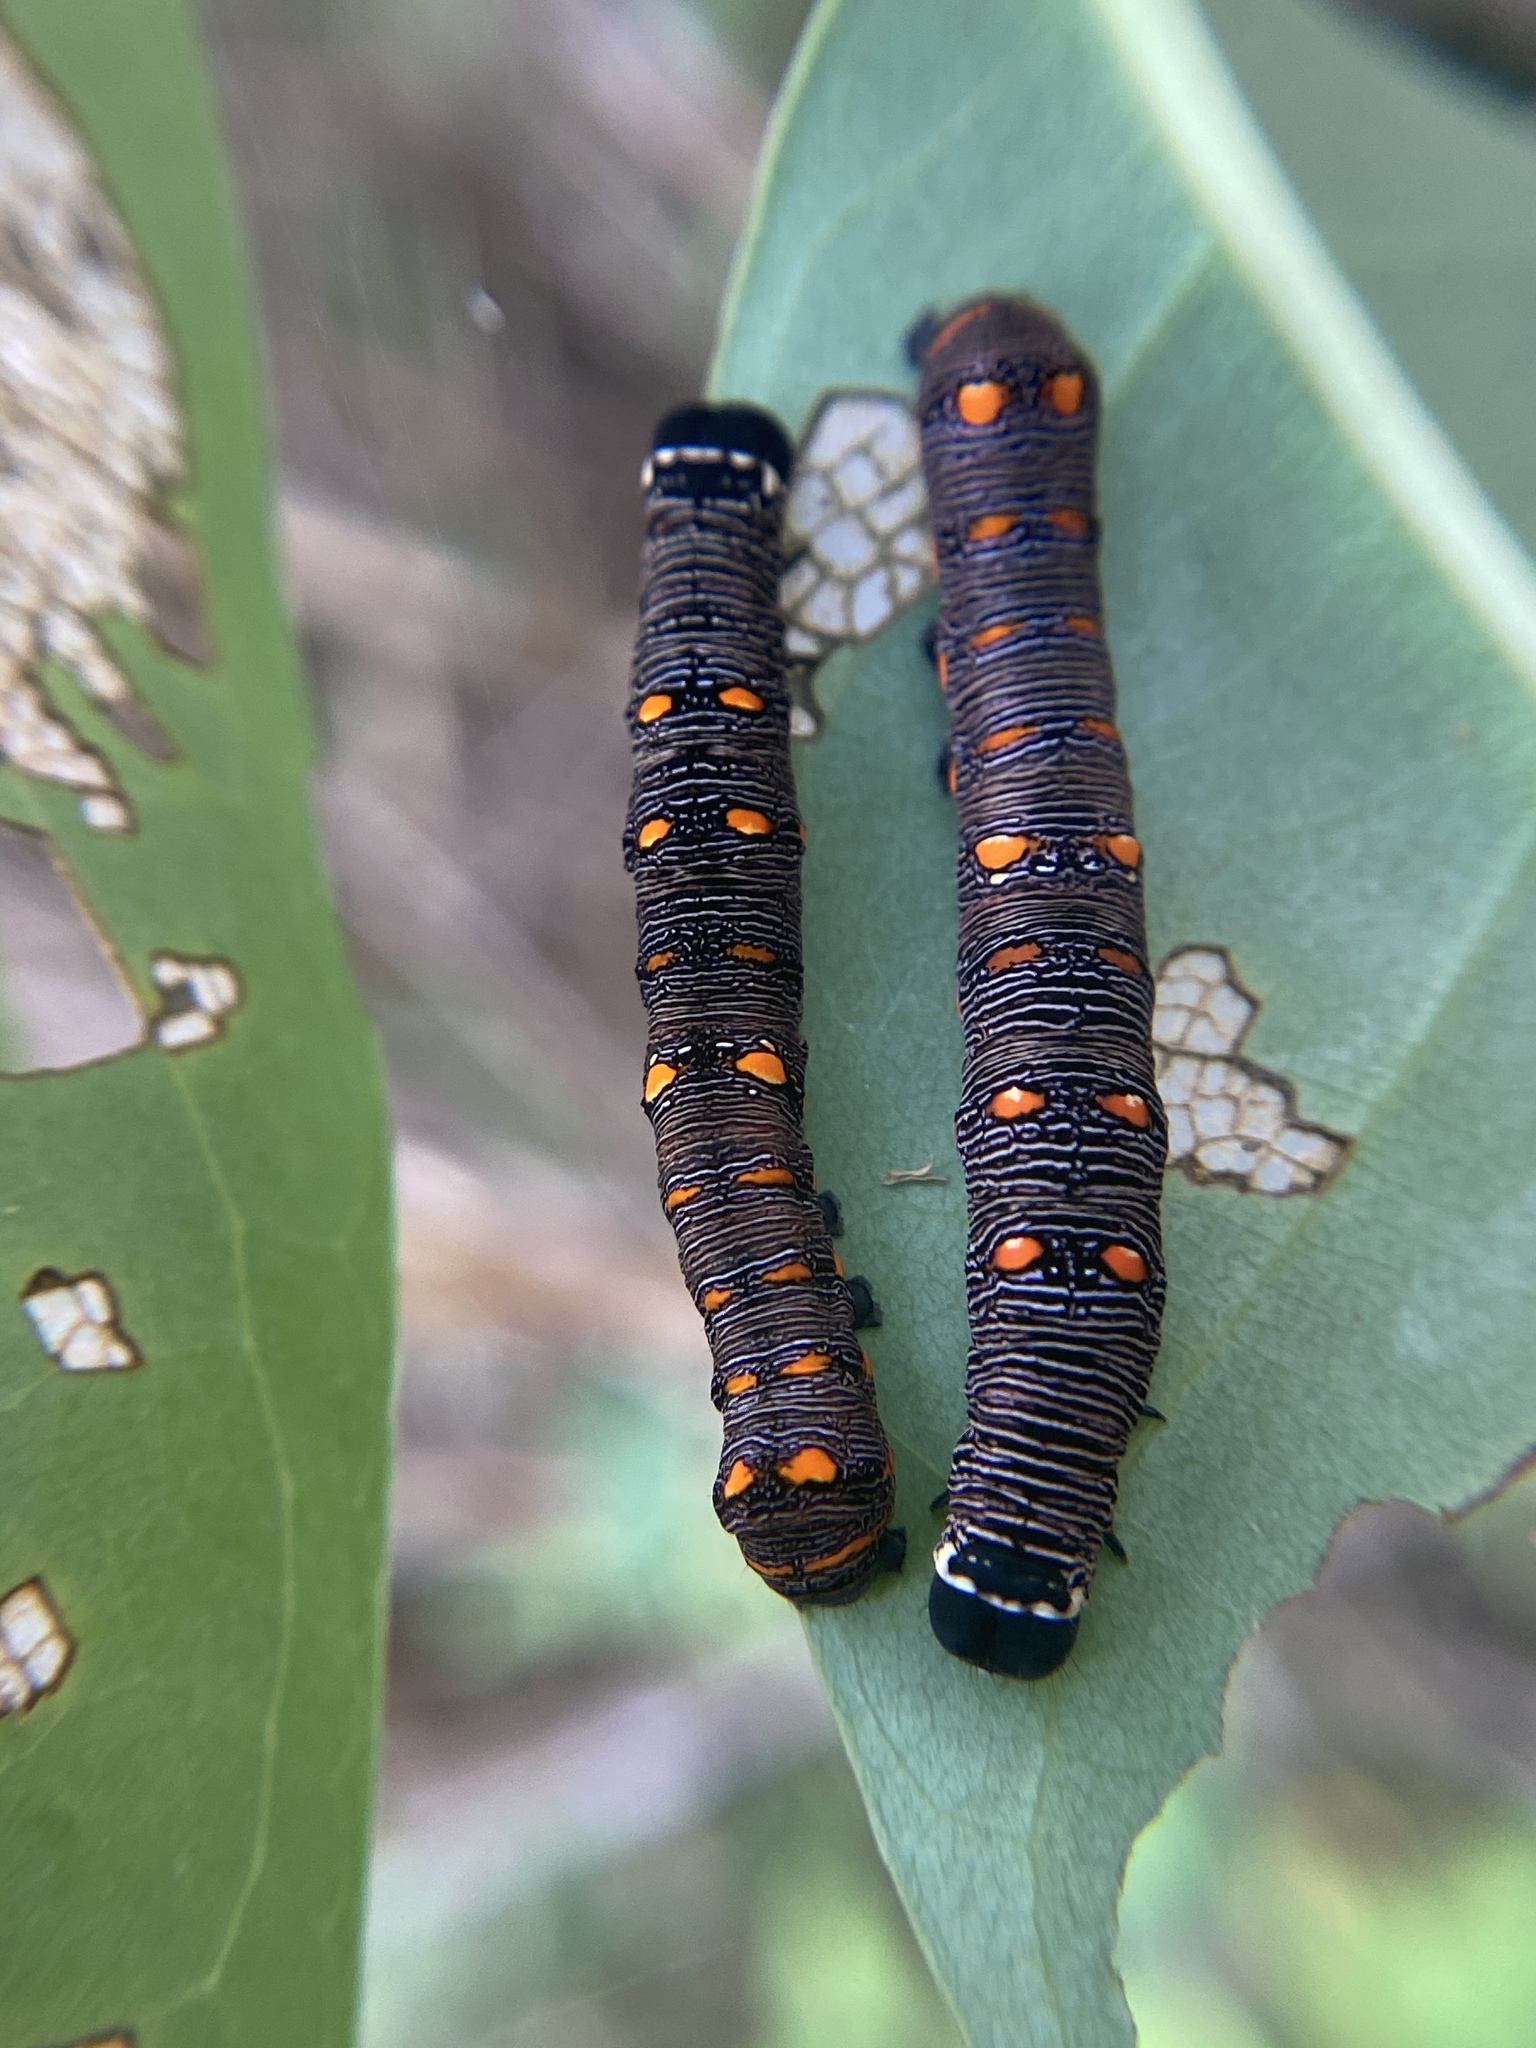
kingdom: Animalia
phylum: Arthropoda
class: Insecta
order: Lepidoptera
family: Erebidae
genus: Gonodonta
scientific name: Gonodonta nutrix
